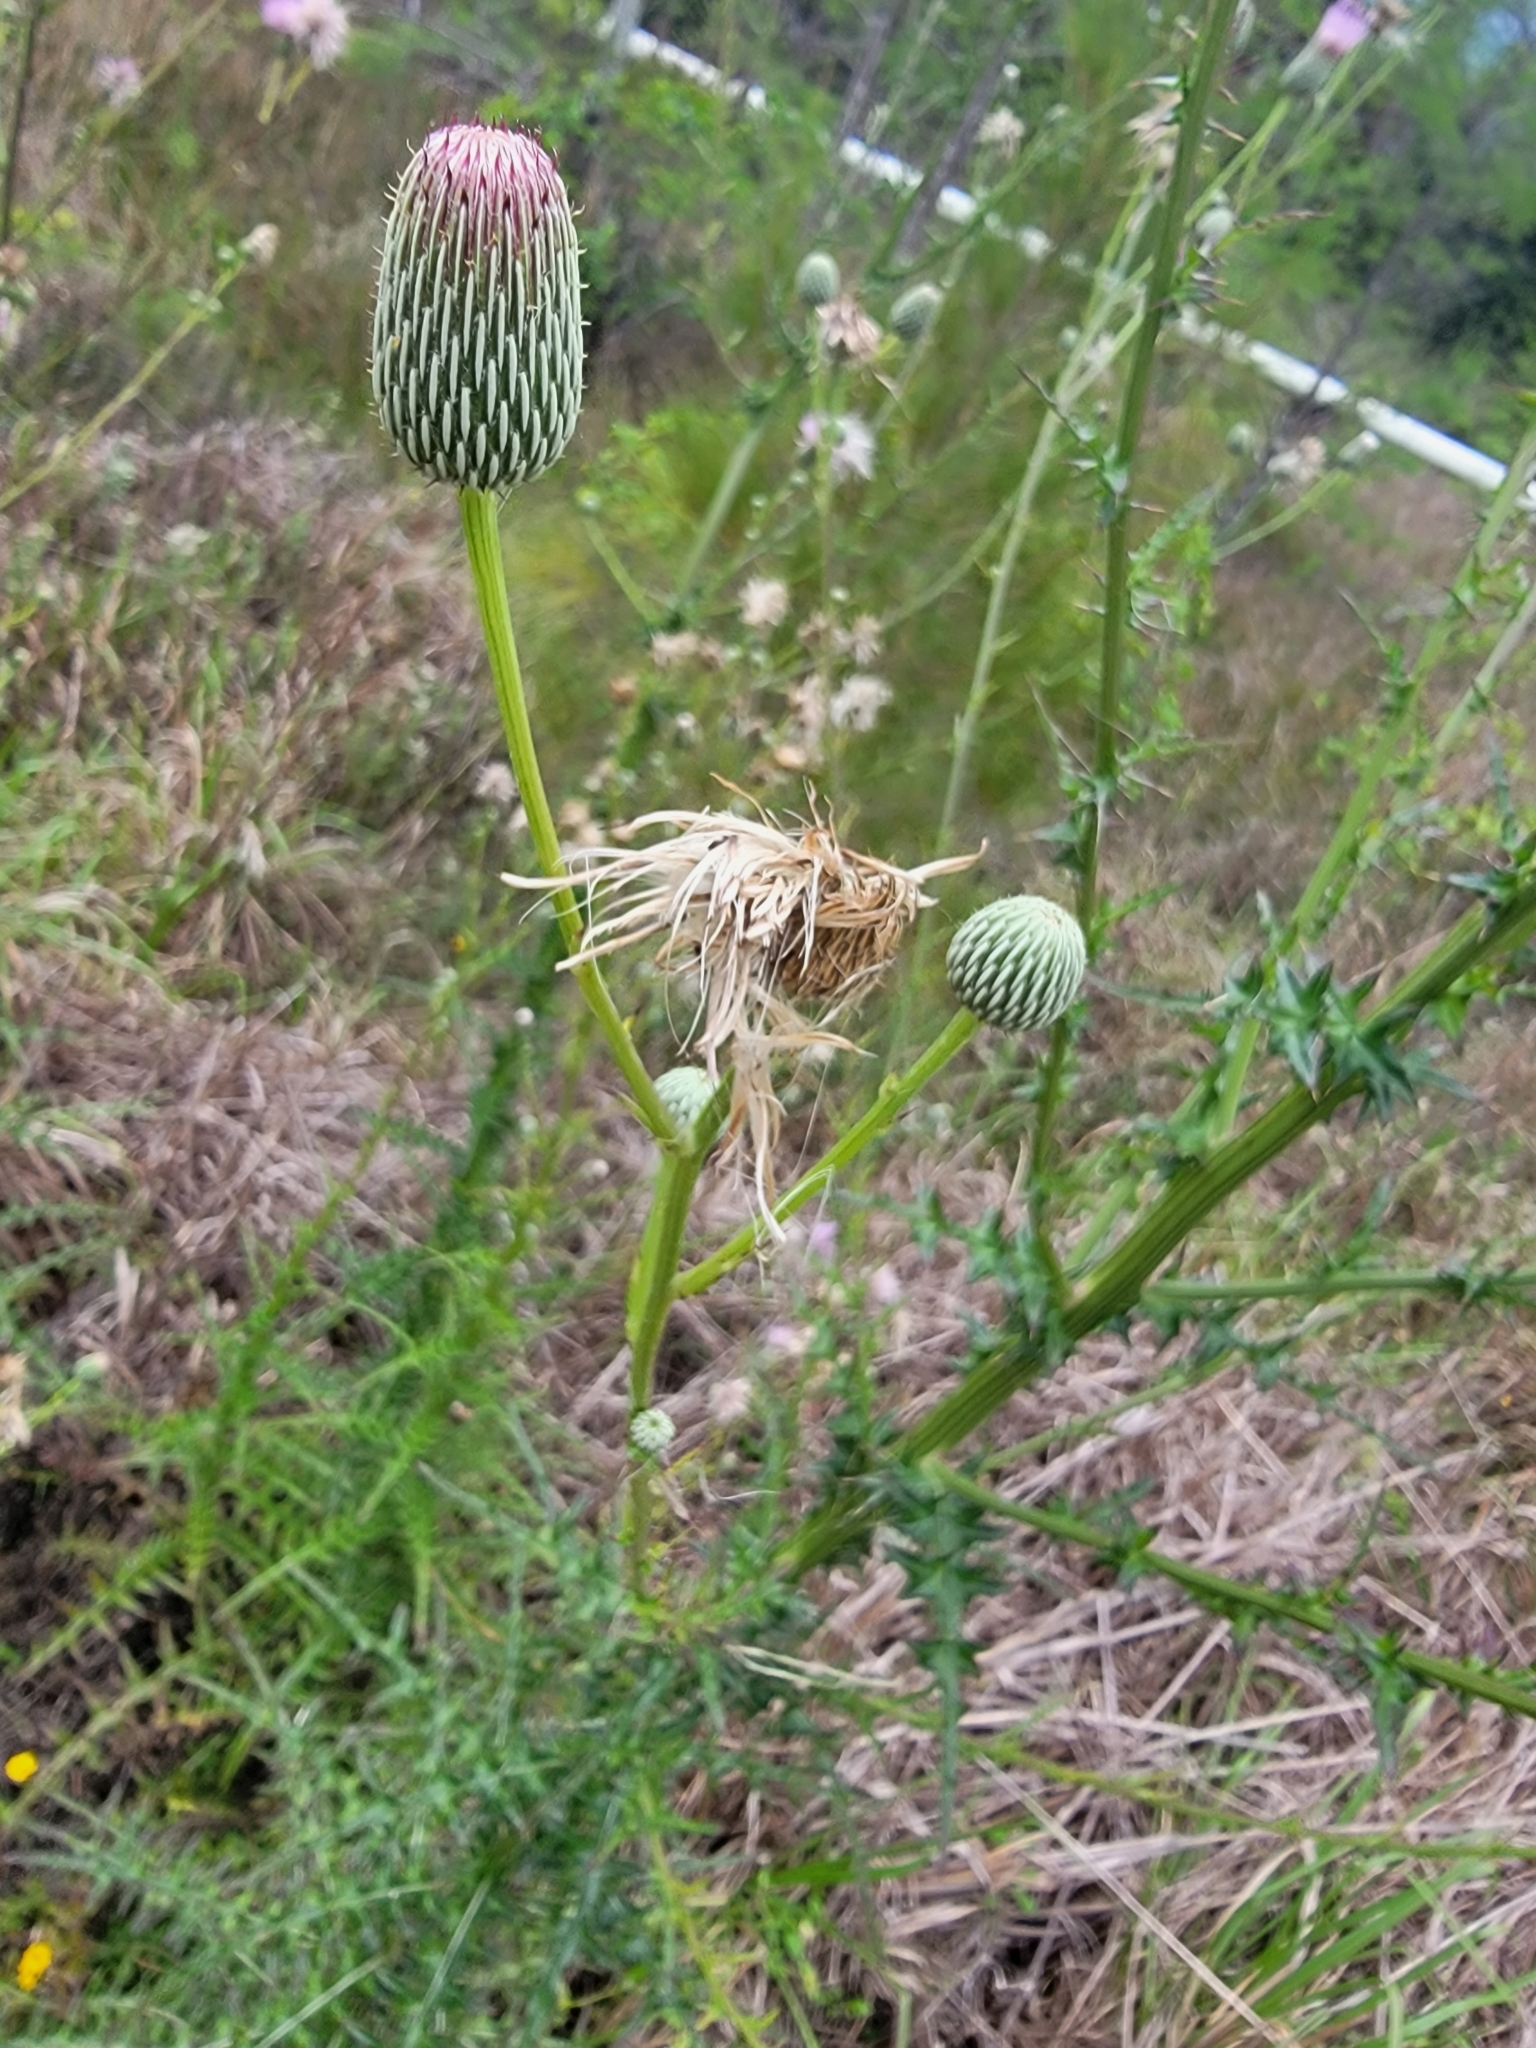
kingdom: Plantae
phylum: Tracheophyta
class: Magnoliopsida
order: Asterales
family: Asteraceae
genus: Cirsium
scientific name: Cirsium nuttalii
